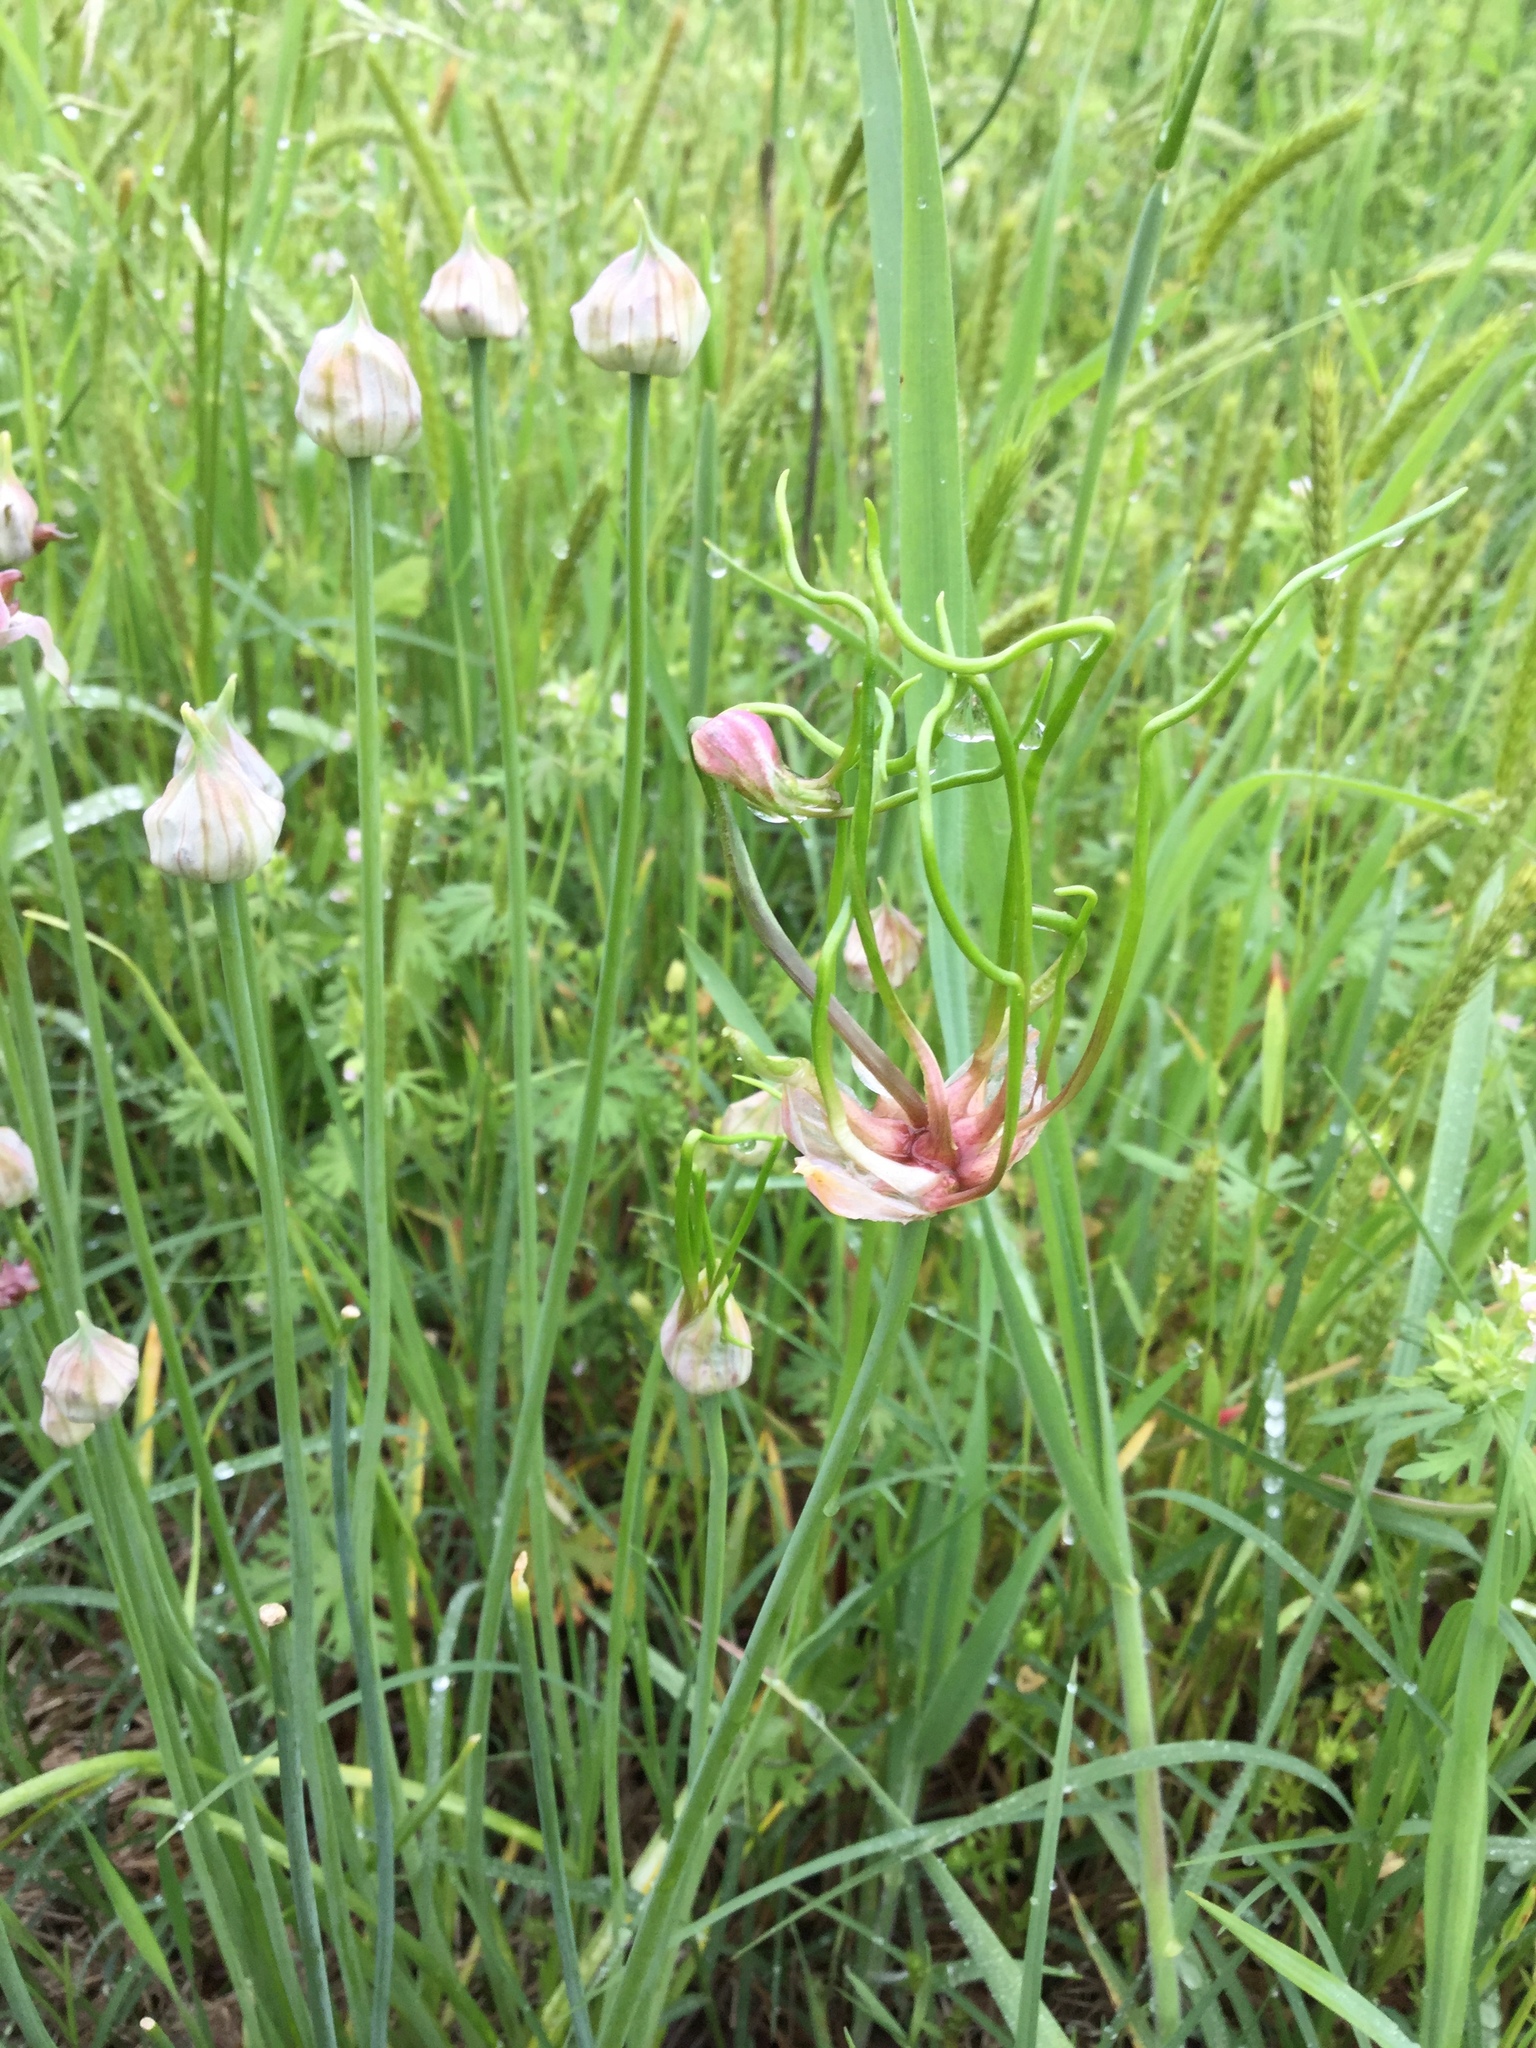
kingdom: Plantae
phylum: Tracheophyta
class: Liliopsida
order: Asparagales
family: Amaryllidaceae
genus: Allium
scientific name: Allium canadense
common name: Meadow garlic
